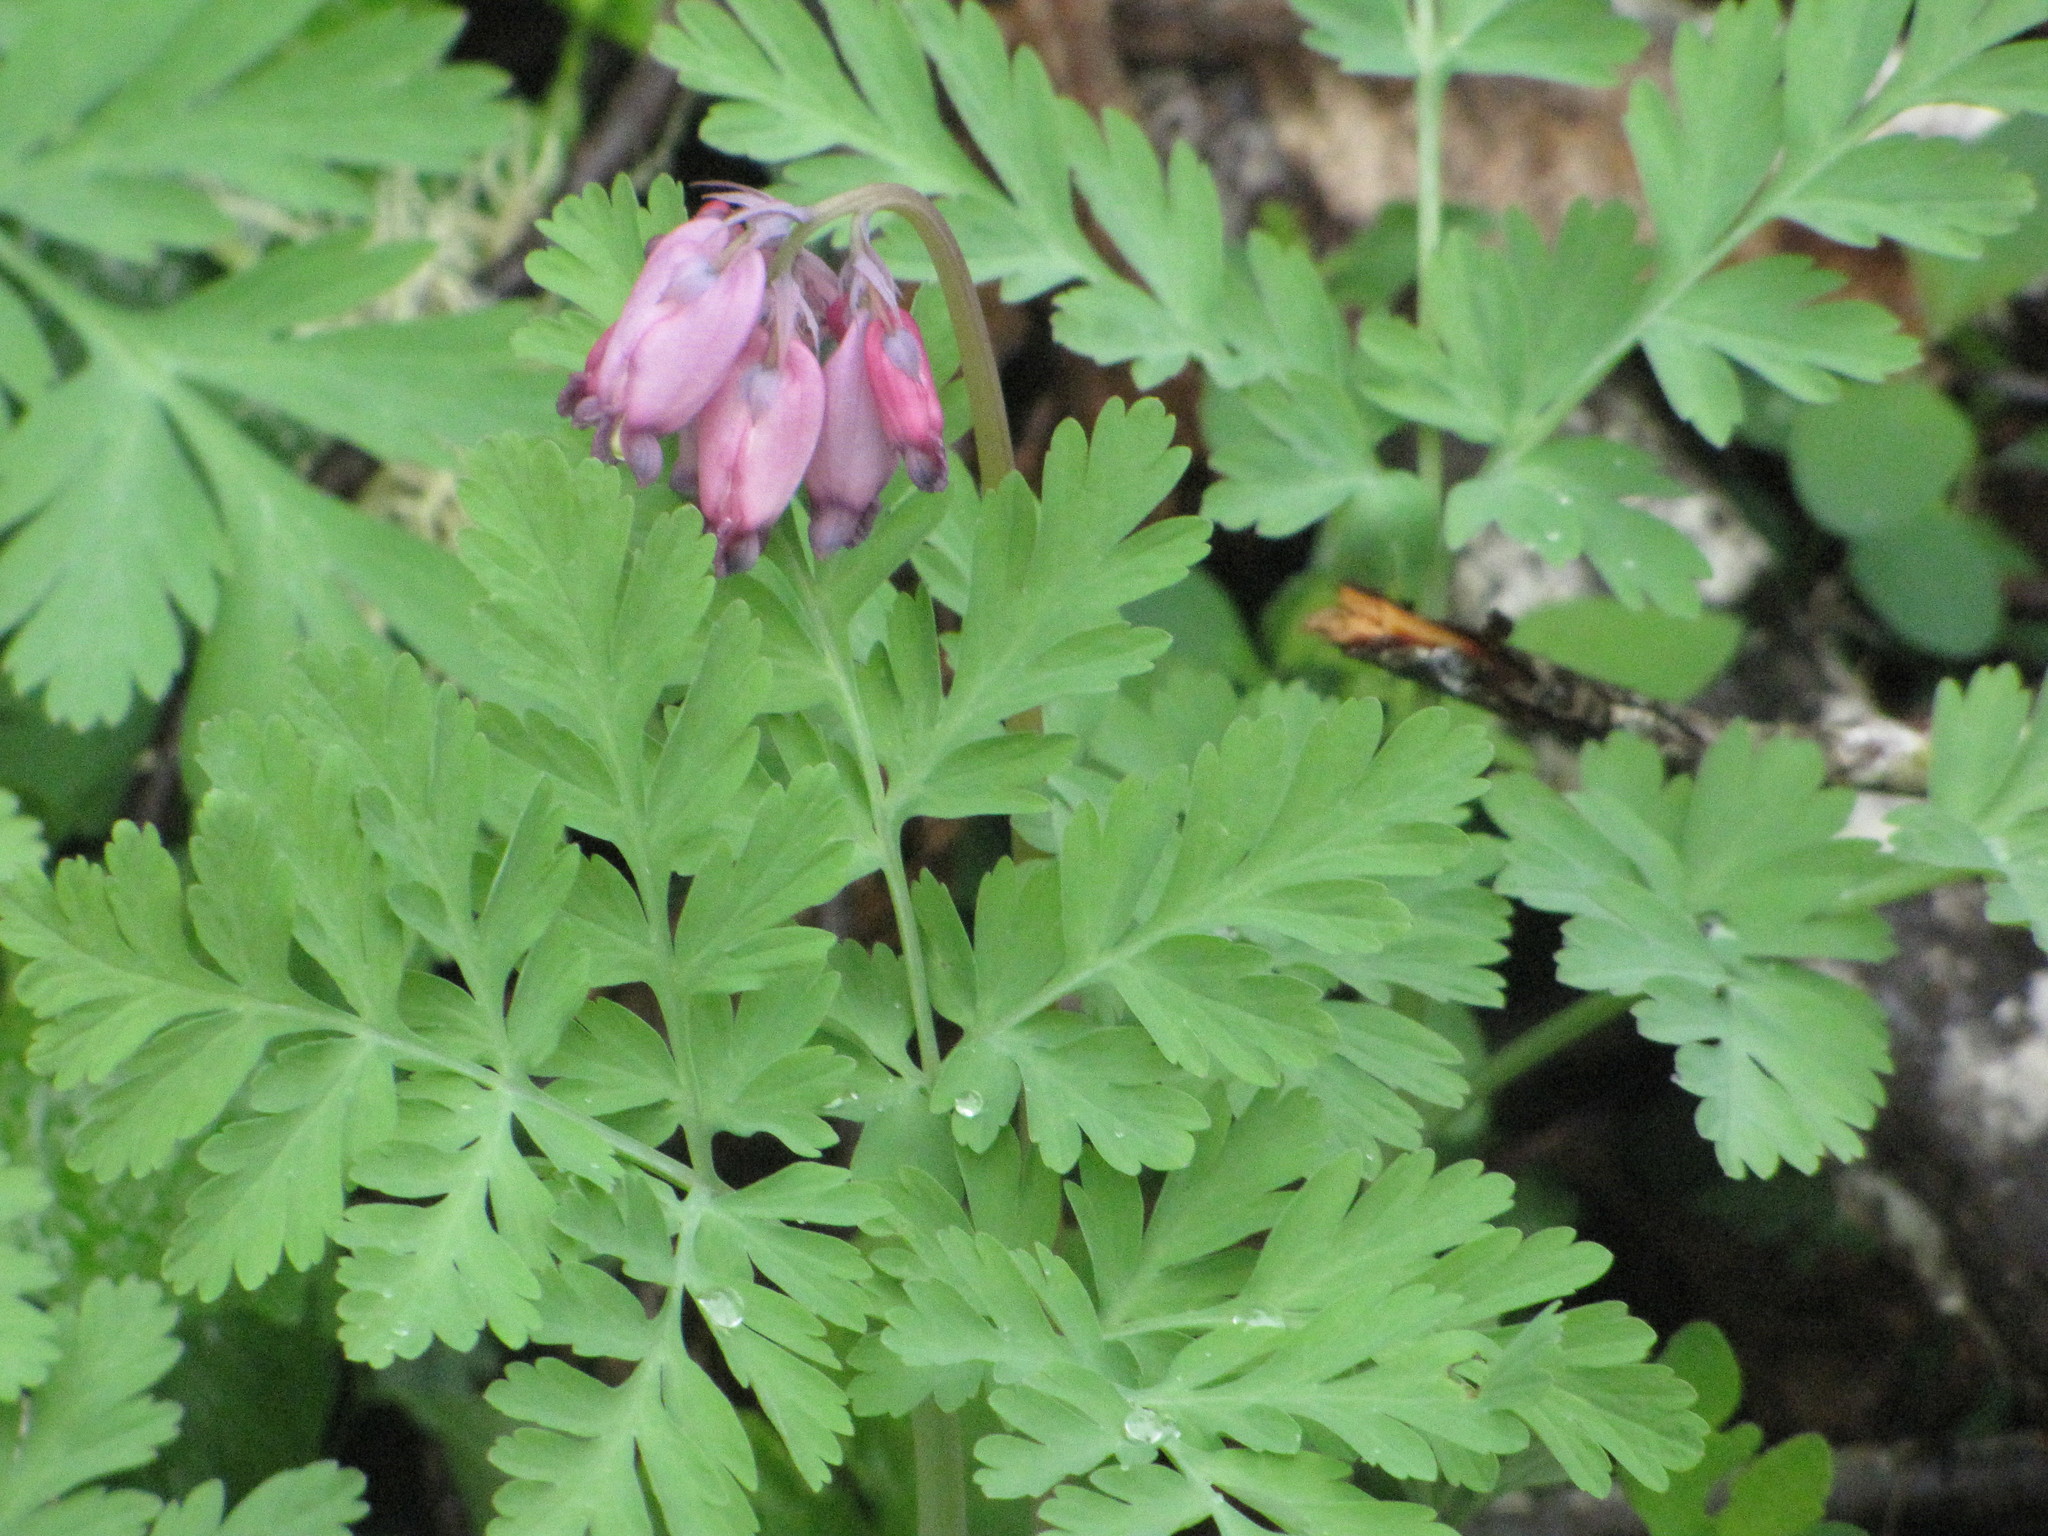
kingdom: Plantae
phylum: Tracheophyta
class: Magnoliopsida
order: Ranunculales
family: Papaveraceae
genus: Dicentra
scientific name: Dicentra formosa
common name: Bleeding-heart
